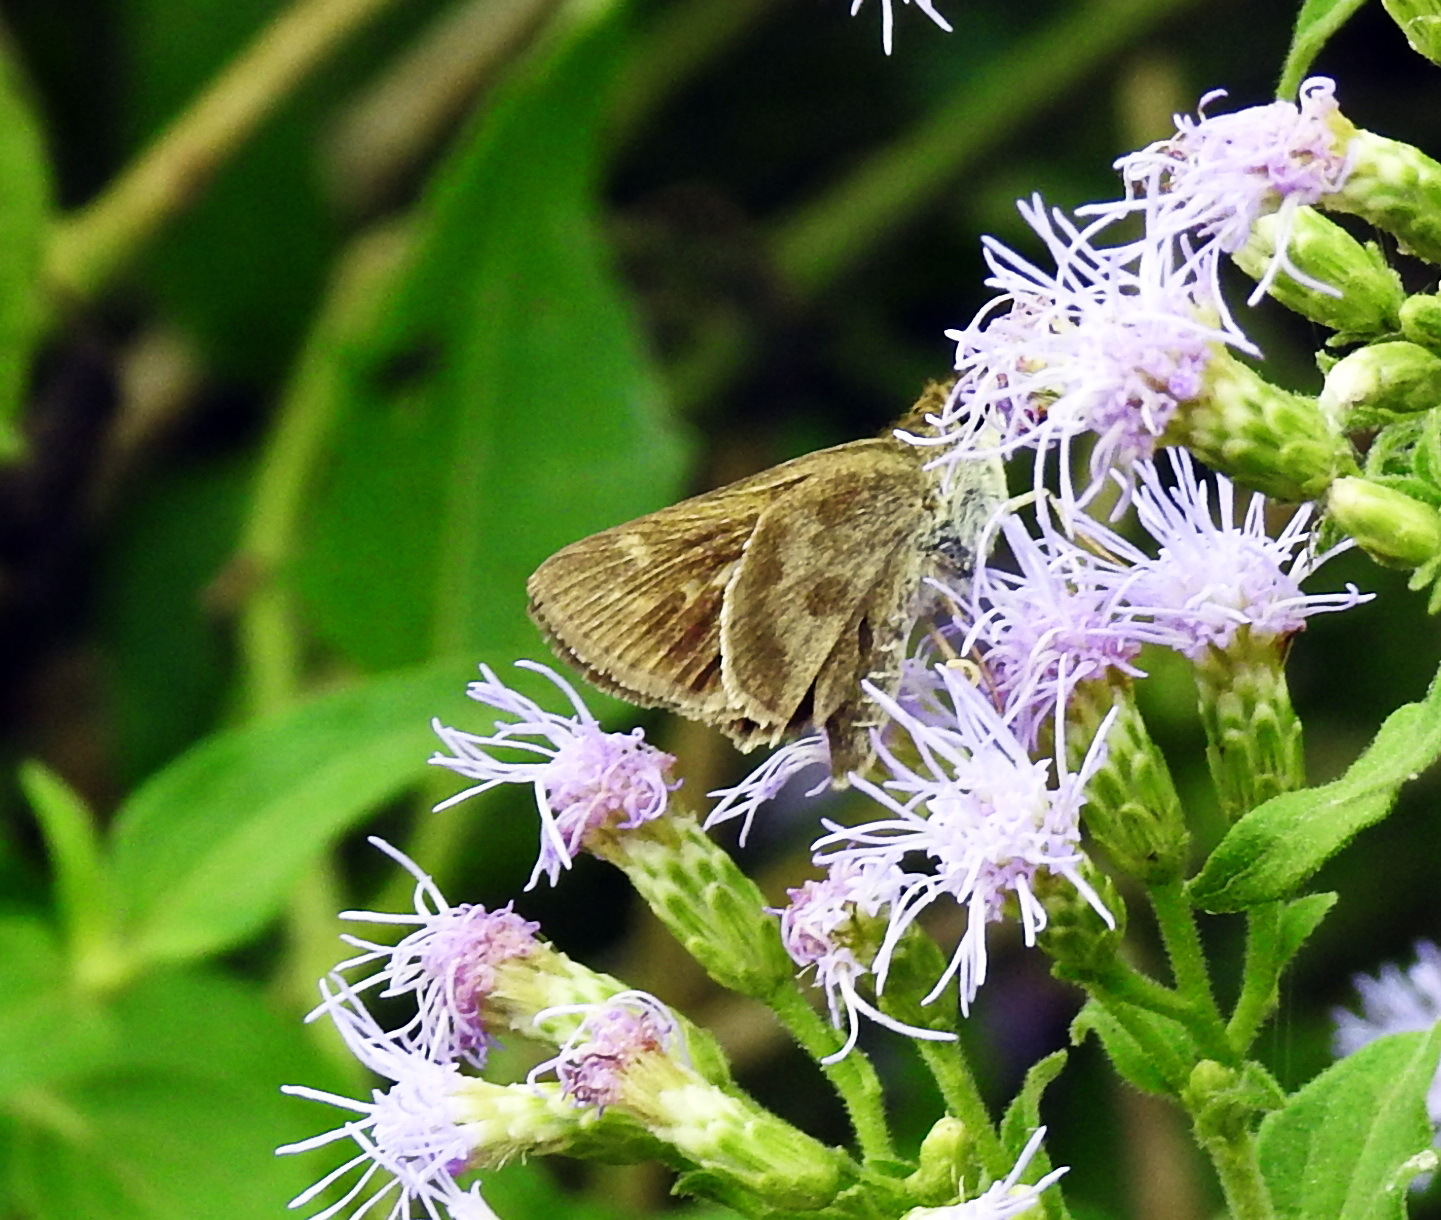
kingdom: Animalia
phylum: Arthropoda
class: Insecta
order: Lepidoptera
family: Hesperiidae
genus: Polites
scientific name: Polites vibex
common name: Whirlabout
